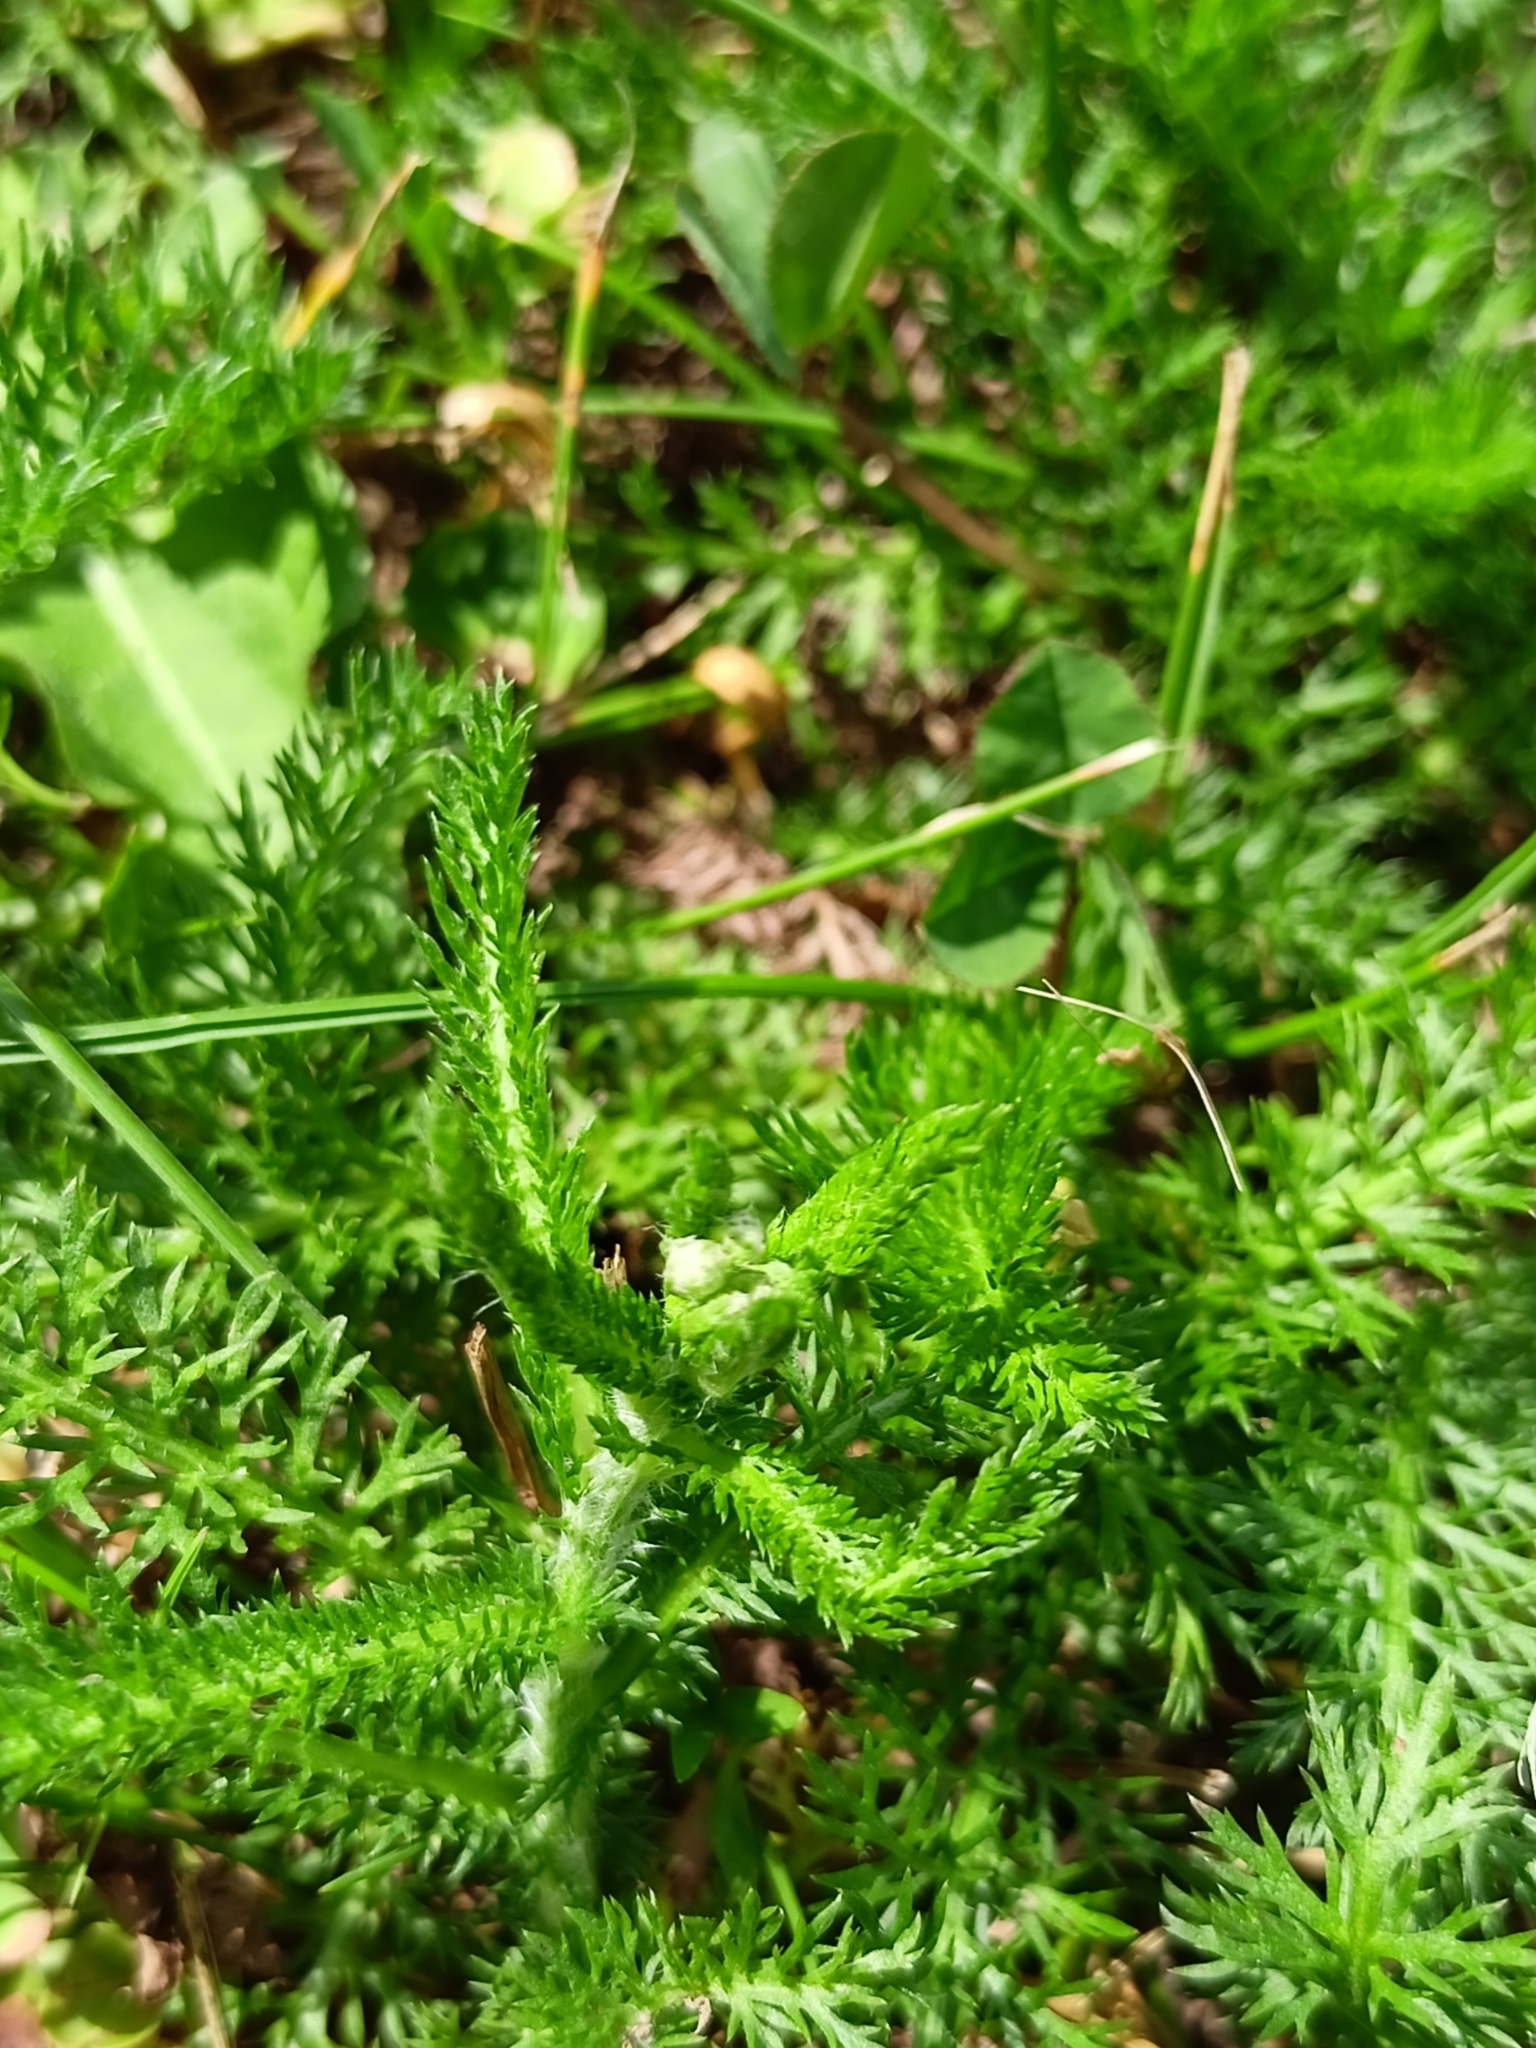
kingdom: Plantae
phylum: Tracheophyta
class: Magnoliopsida
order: Asterales
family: Asteraceae
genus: Achillea
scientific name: Achillea millefolium
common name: Yarrow
